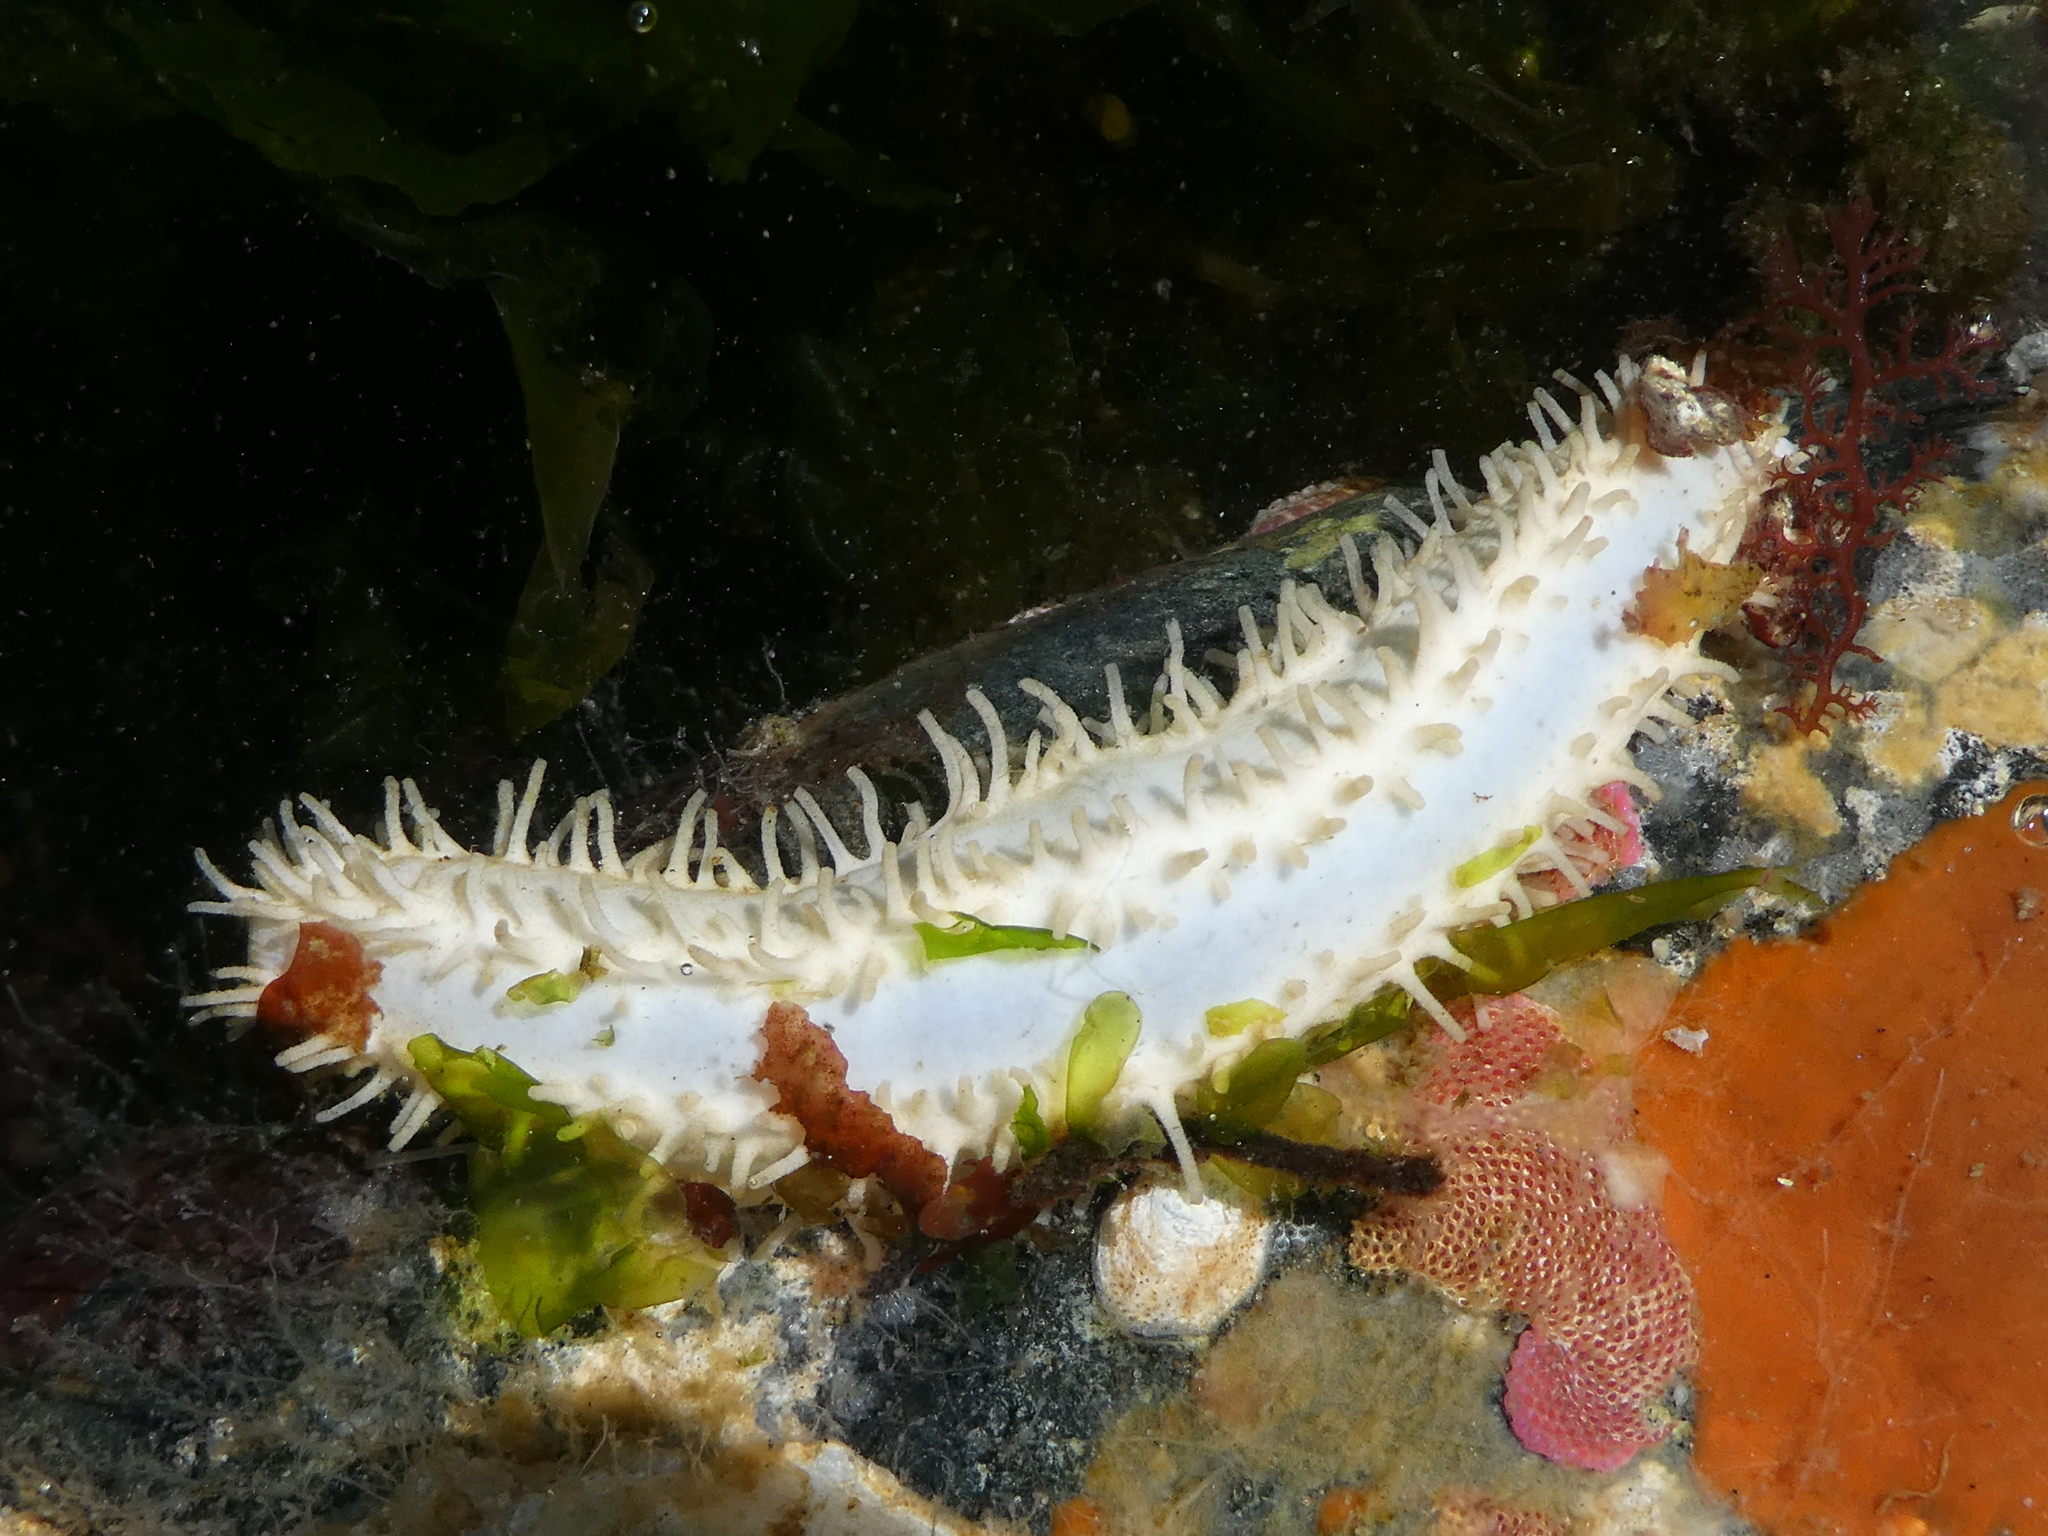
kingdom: Animalia
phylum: Echinodermata
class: Holothuroidea
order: Dendrochirotida
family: Sclerodactylidae
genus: Eupentacta
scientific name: Eupentacta quinquesemita
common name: Pentamerous sea cucumber
